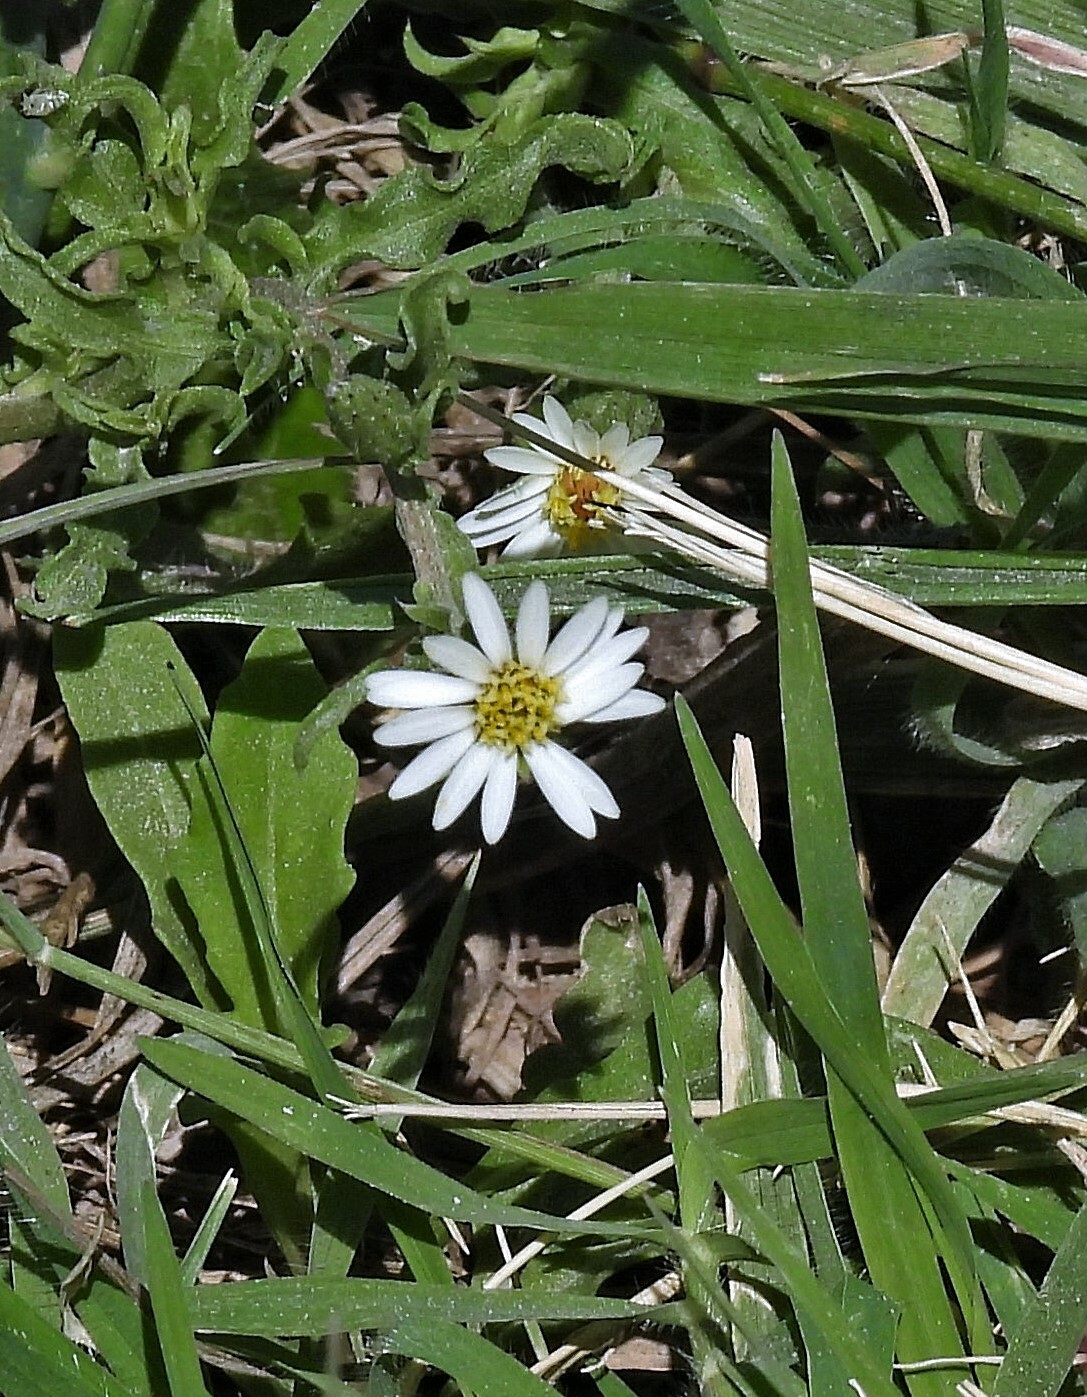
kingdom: Plantae
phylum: Tracheophyta
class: Magnoliopsida
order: Asterales
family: Asteraceae
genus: Noticastrum
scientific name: Noticastrum diffusum
